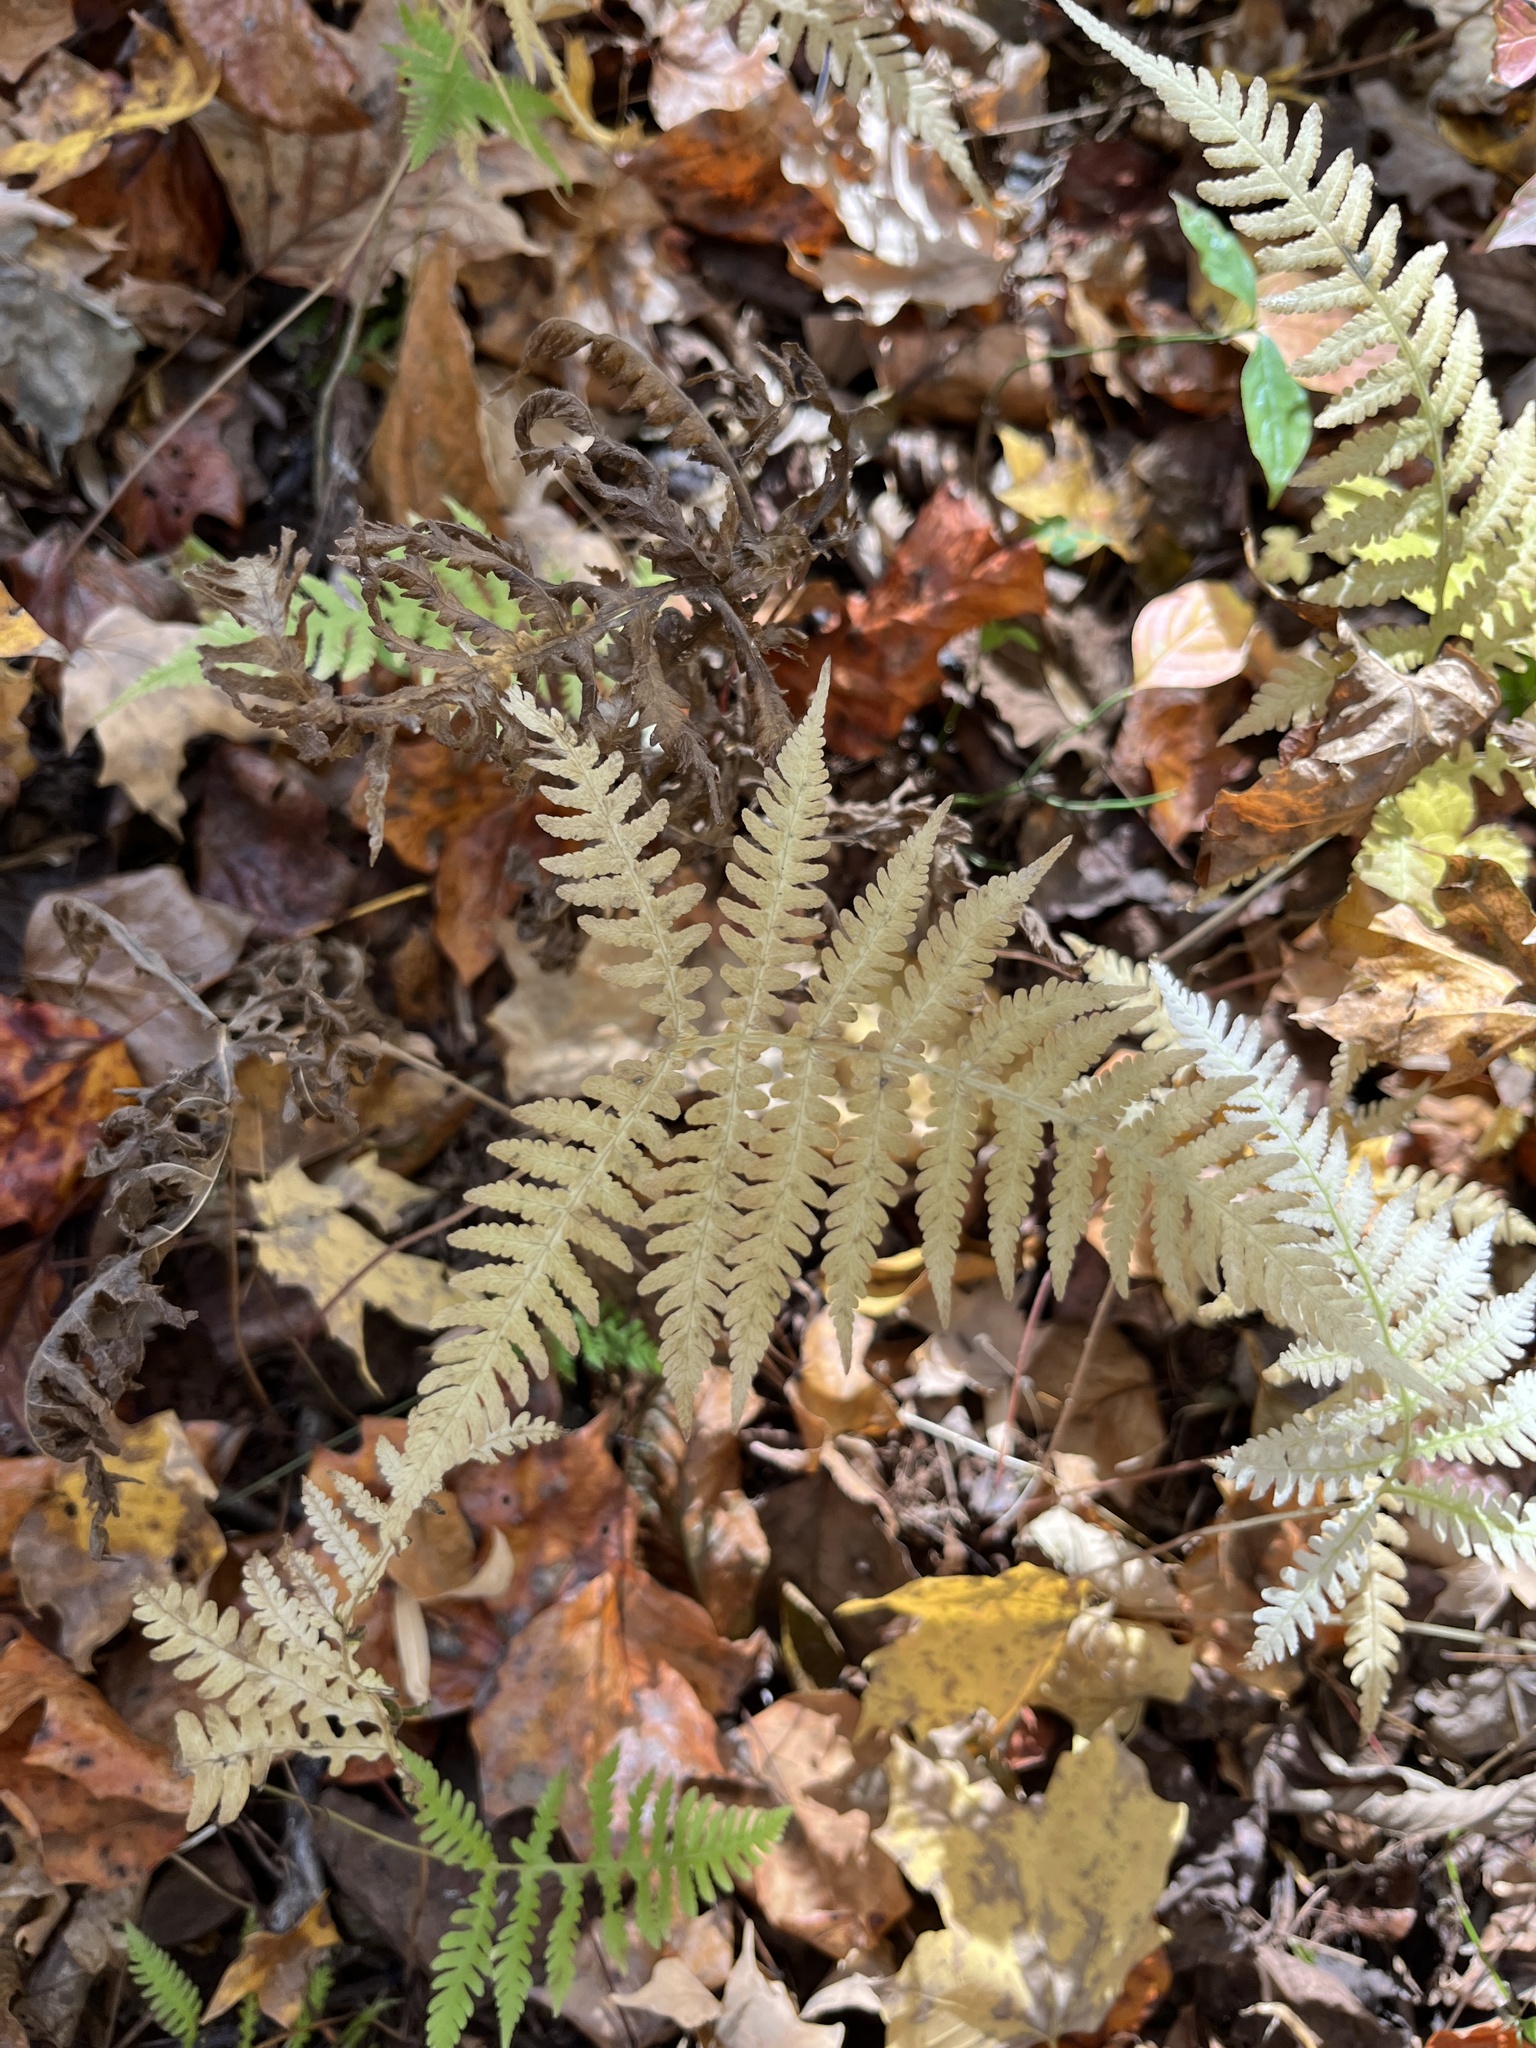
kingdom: Plantae
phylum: Tracheophyta
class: Polypodiopsida
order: Polypodiales
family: Thelypteridaceae
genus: Phegopteris
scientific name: Phegopteris hexagonoptera
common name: Broad beech fern
